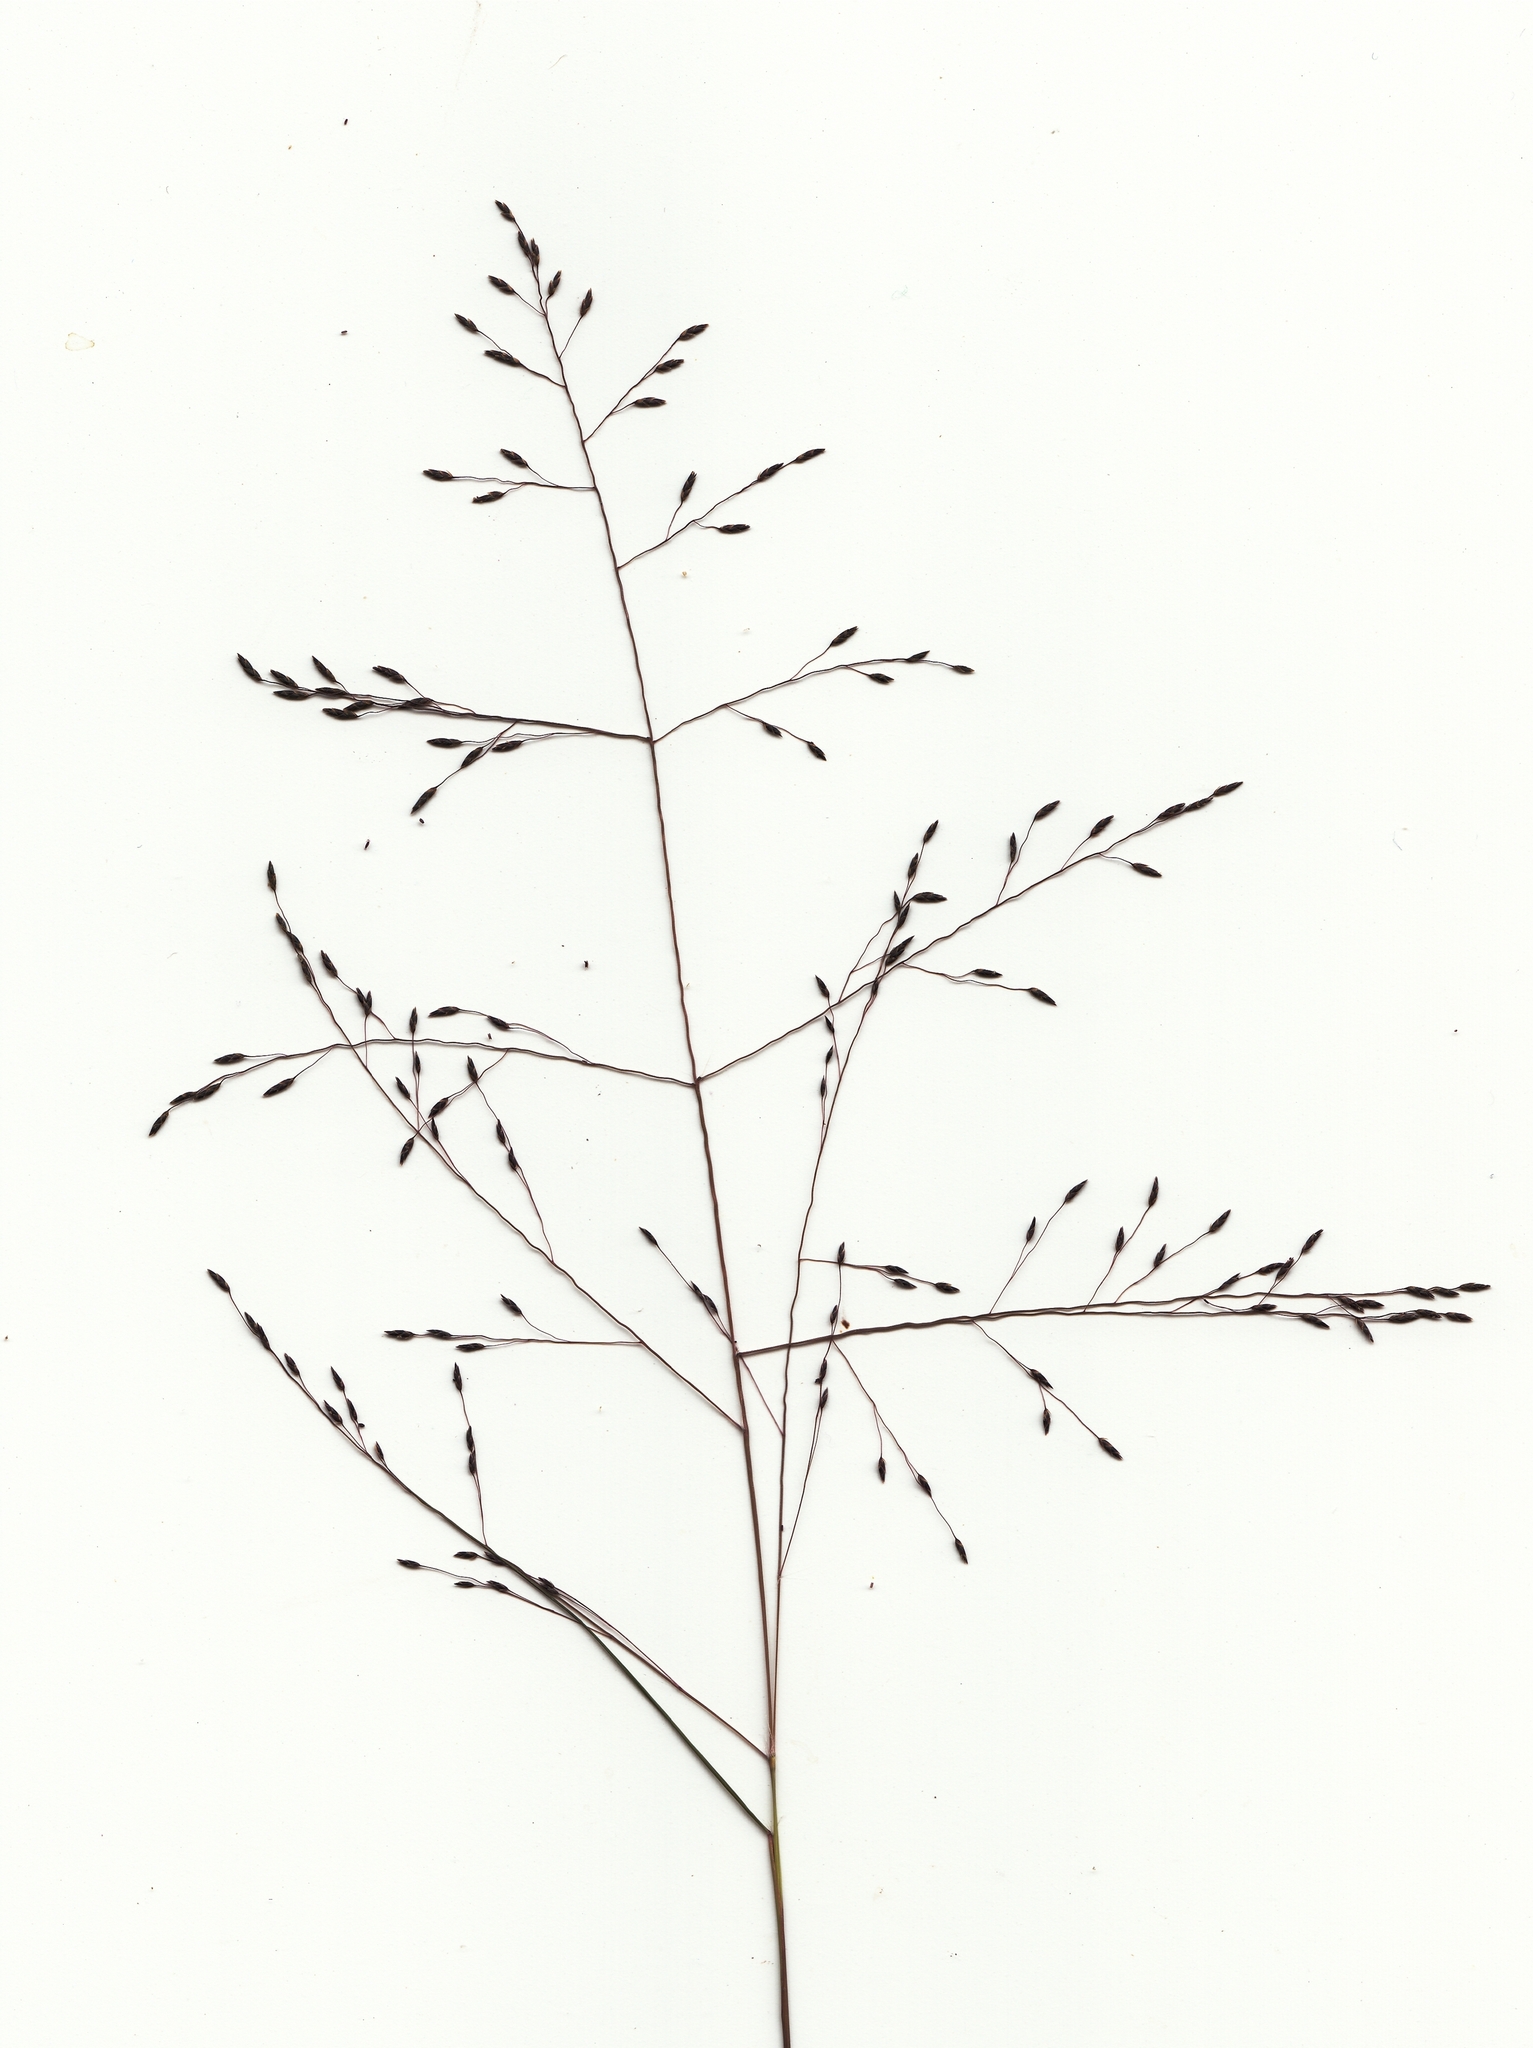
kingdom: Plantae
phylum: Tracheophyta
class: Liliopsida
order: Poales
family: Poaceae
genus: Eragrostis
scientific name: Eragrostis lugens
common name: Mourning love grass
